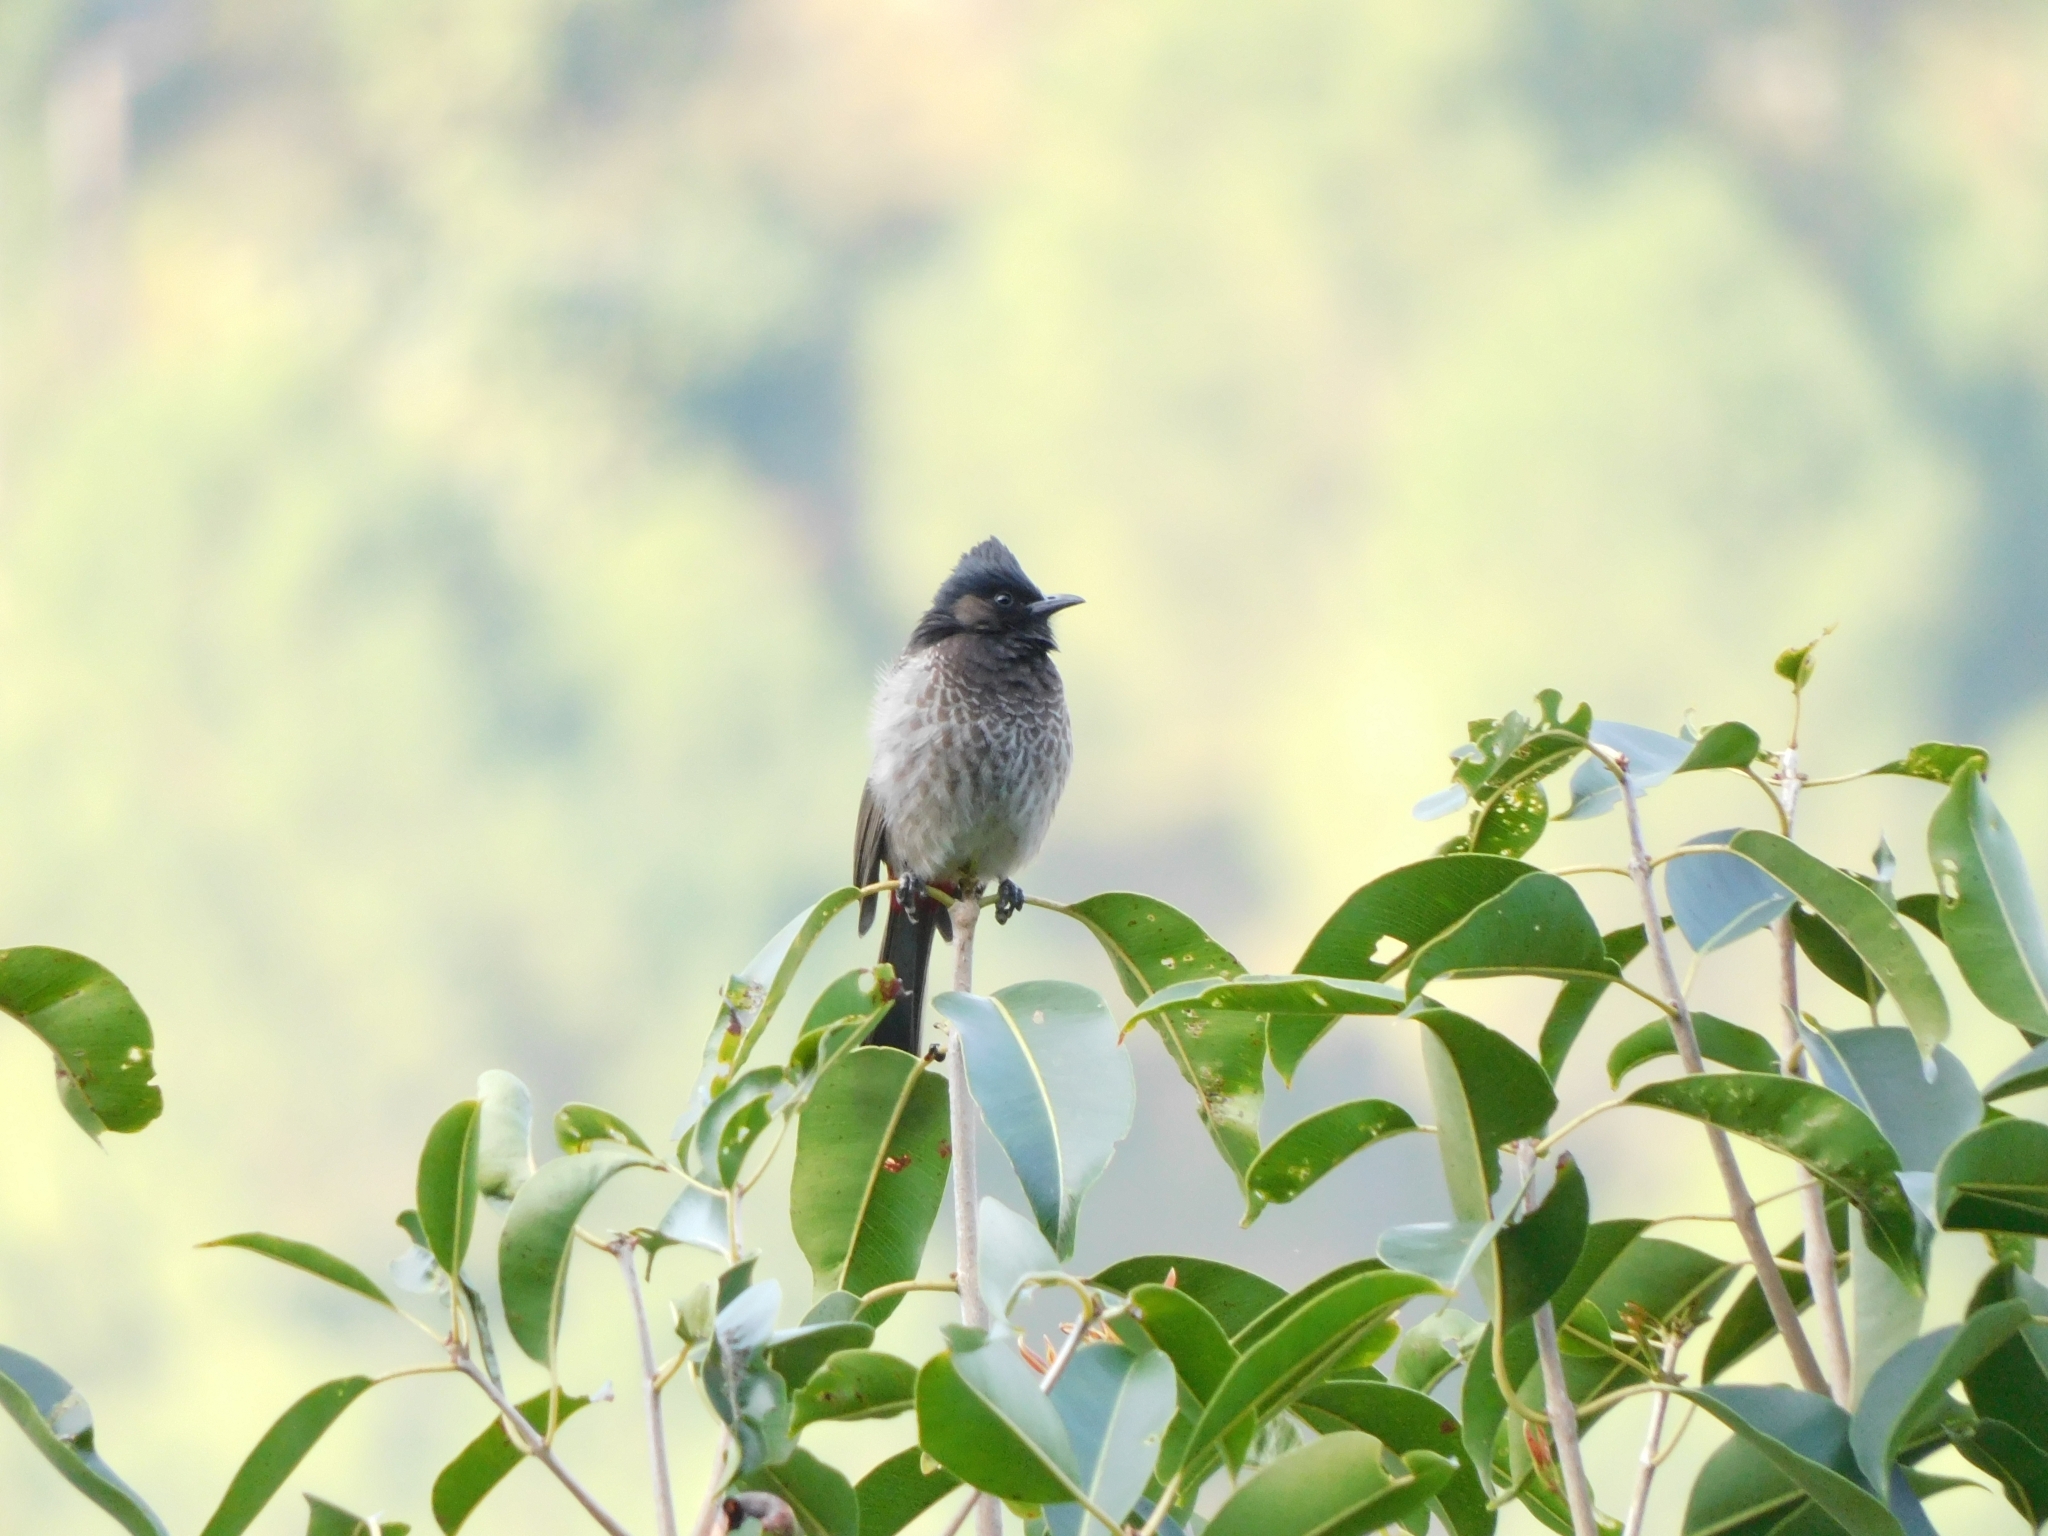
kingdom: Animalia
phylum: Chordata
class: Aves
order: Passeriformes
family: Pycnonotidae
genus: Pycnonotus
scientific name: Pycnonotus cafer
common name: Red-vented bulbul
